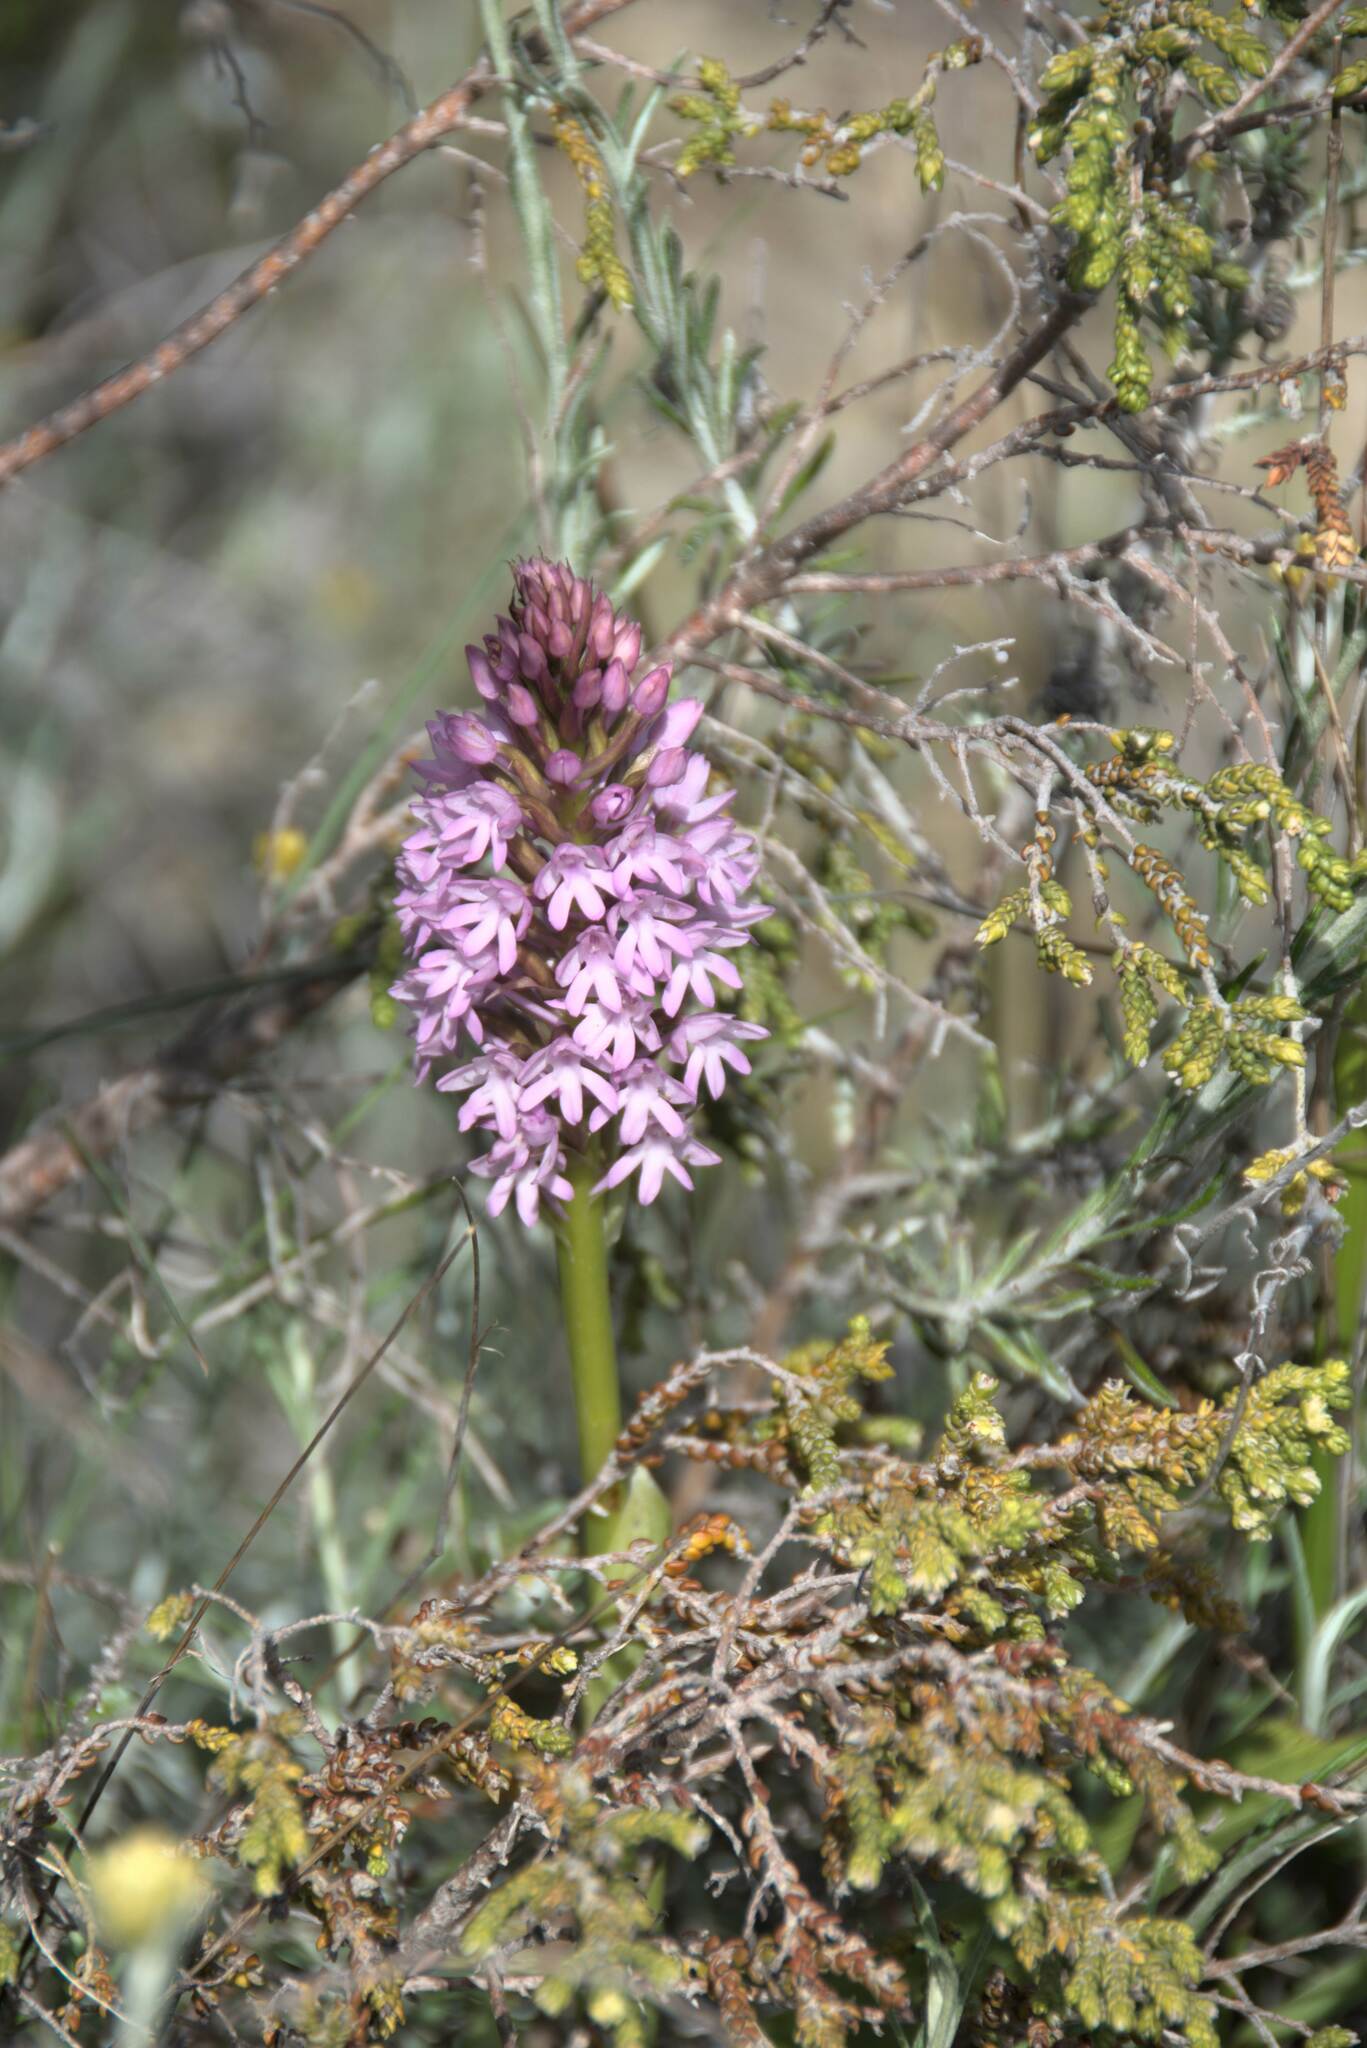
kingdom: Plantae
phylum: Tracheophyta
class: Liliopsida
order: Asparagales
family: Orchidaceae
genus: Anacamptis
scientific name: Anacamptis pyramidalis
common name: Pyramidal orchid
